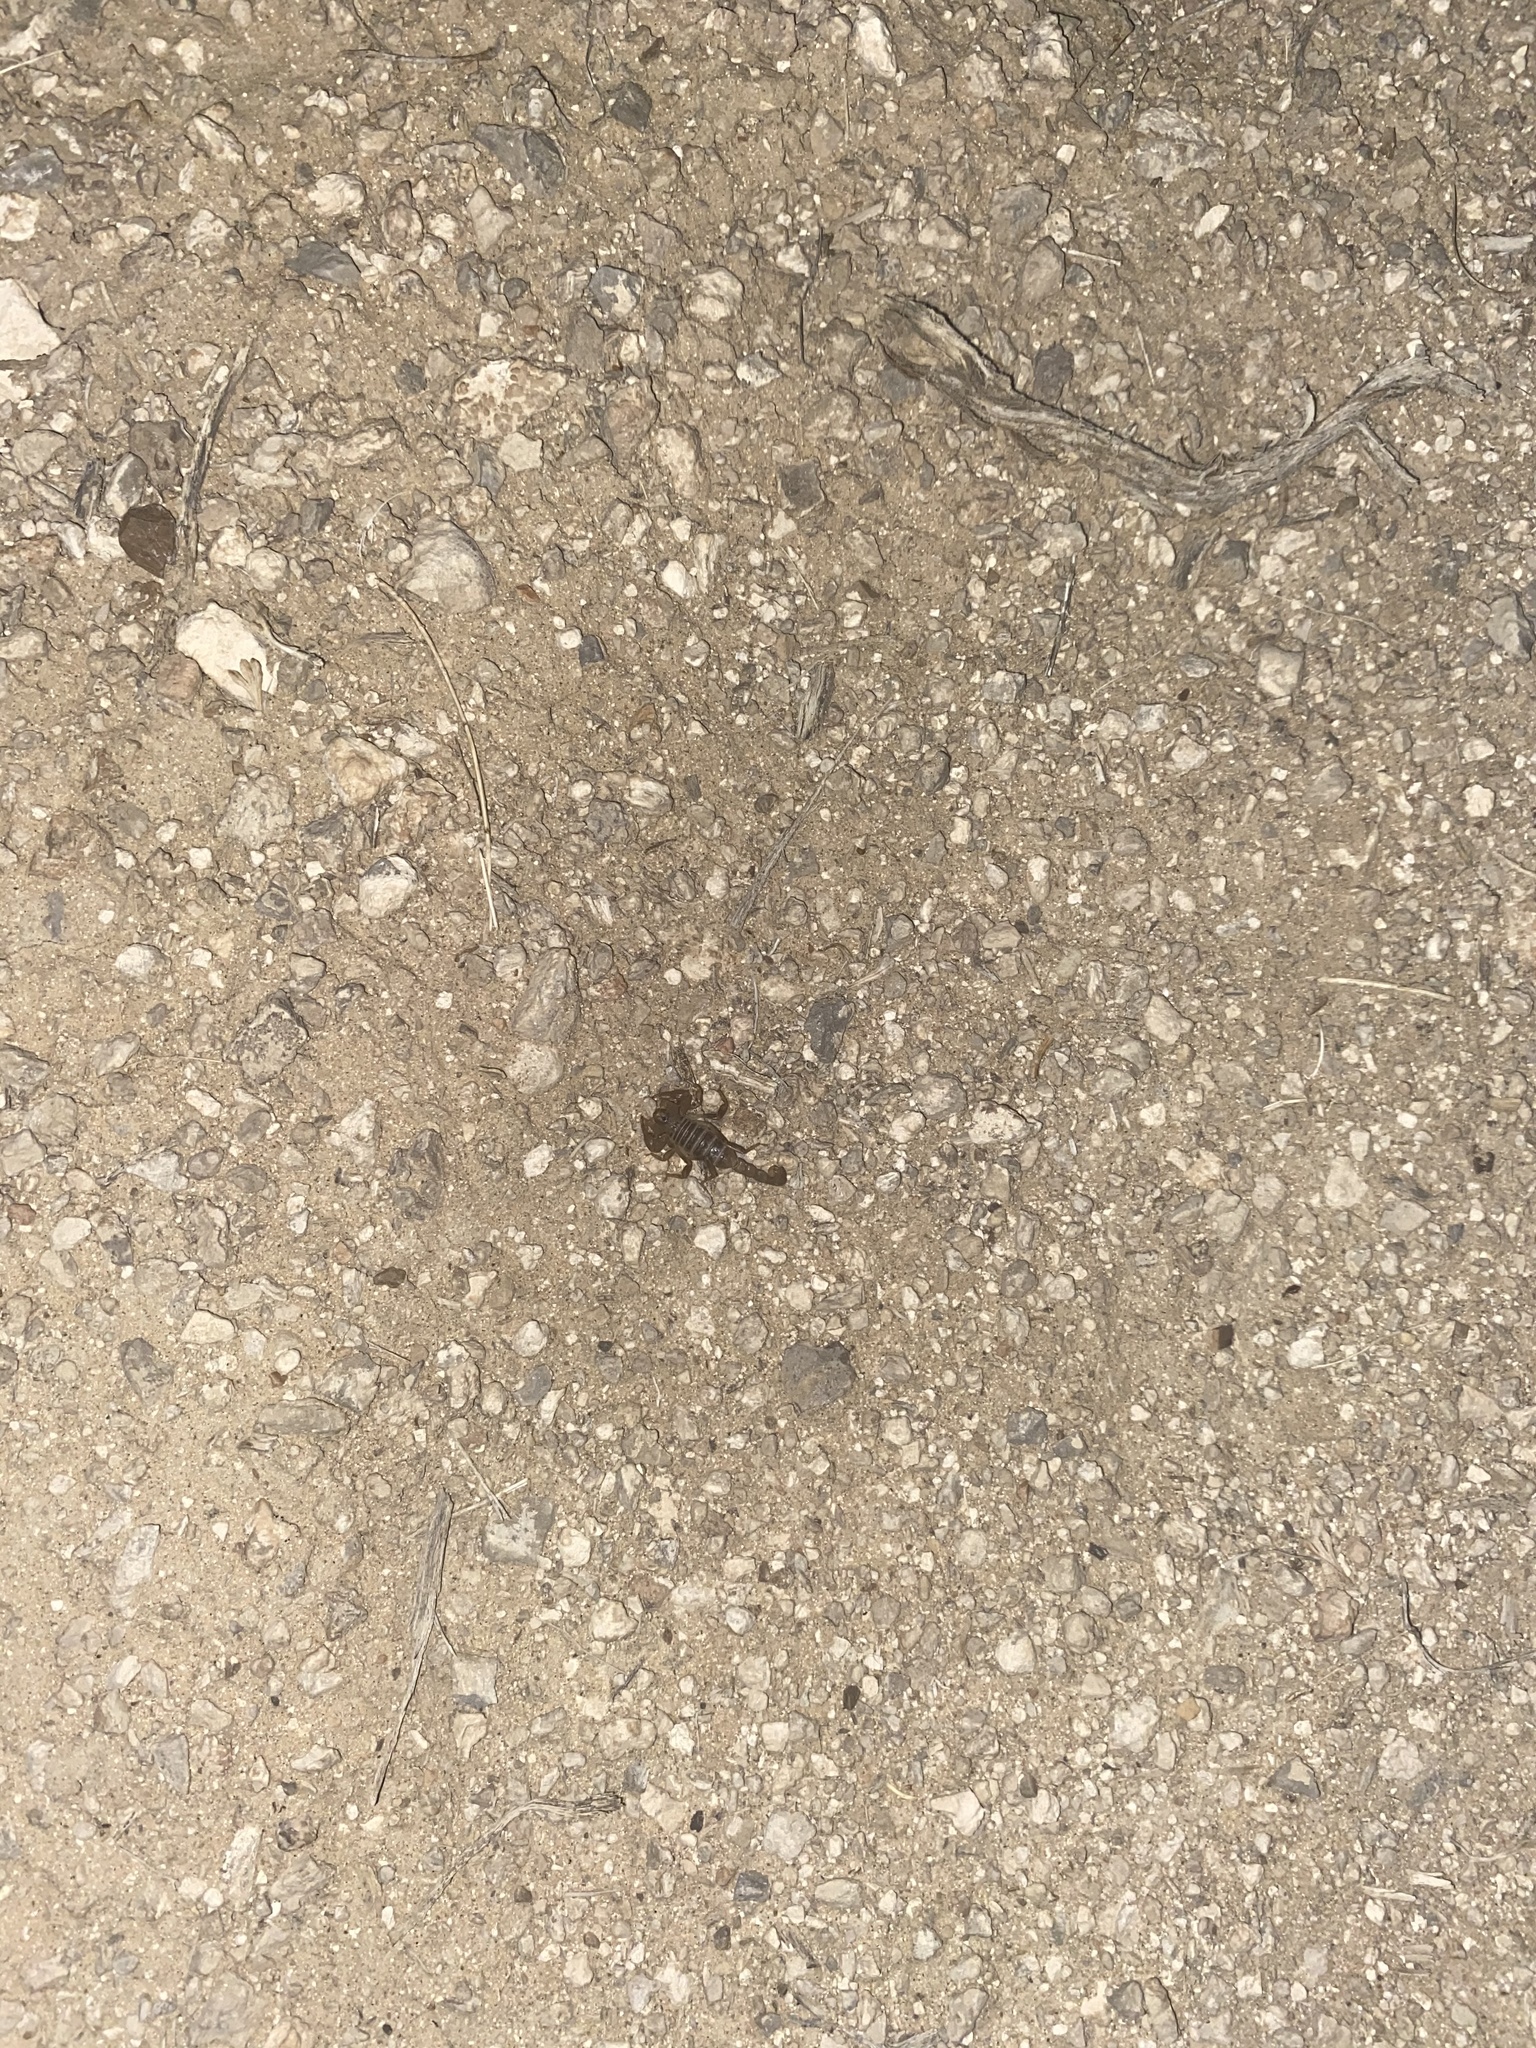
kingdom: Animalia
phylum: Arthropoda
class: Arachnida
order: Scorpiones
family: Vaejovidae
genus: Paruroctonus
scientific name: Paruroctonus boreus
